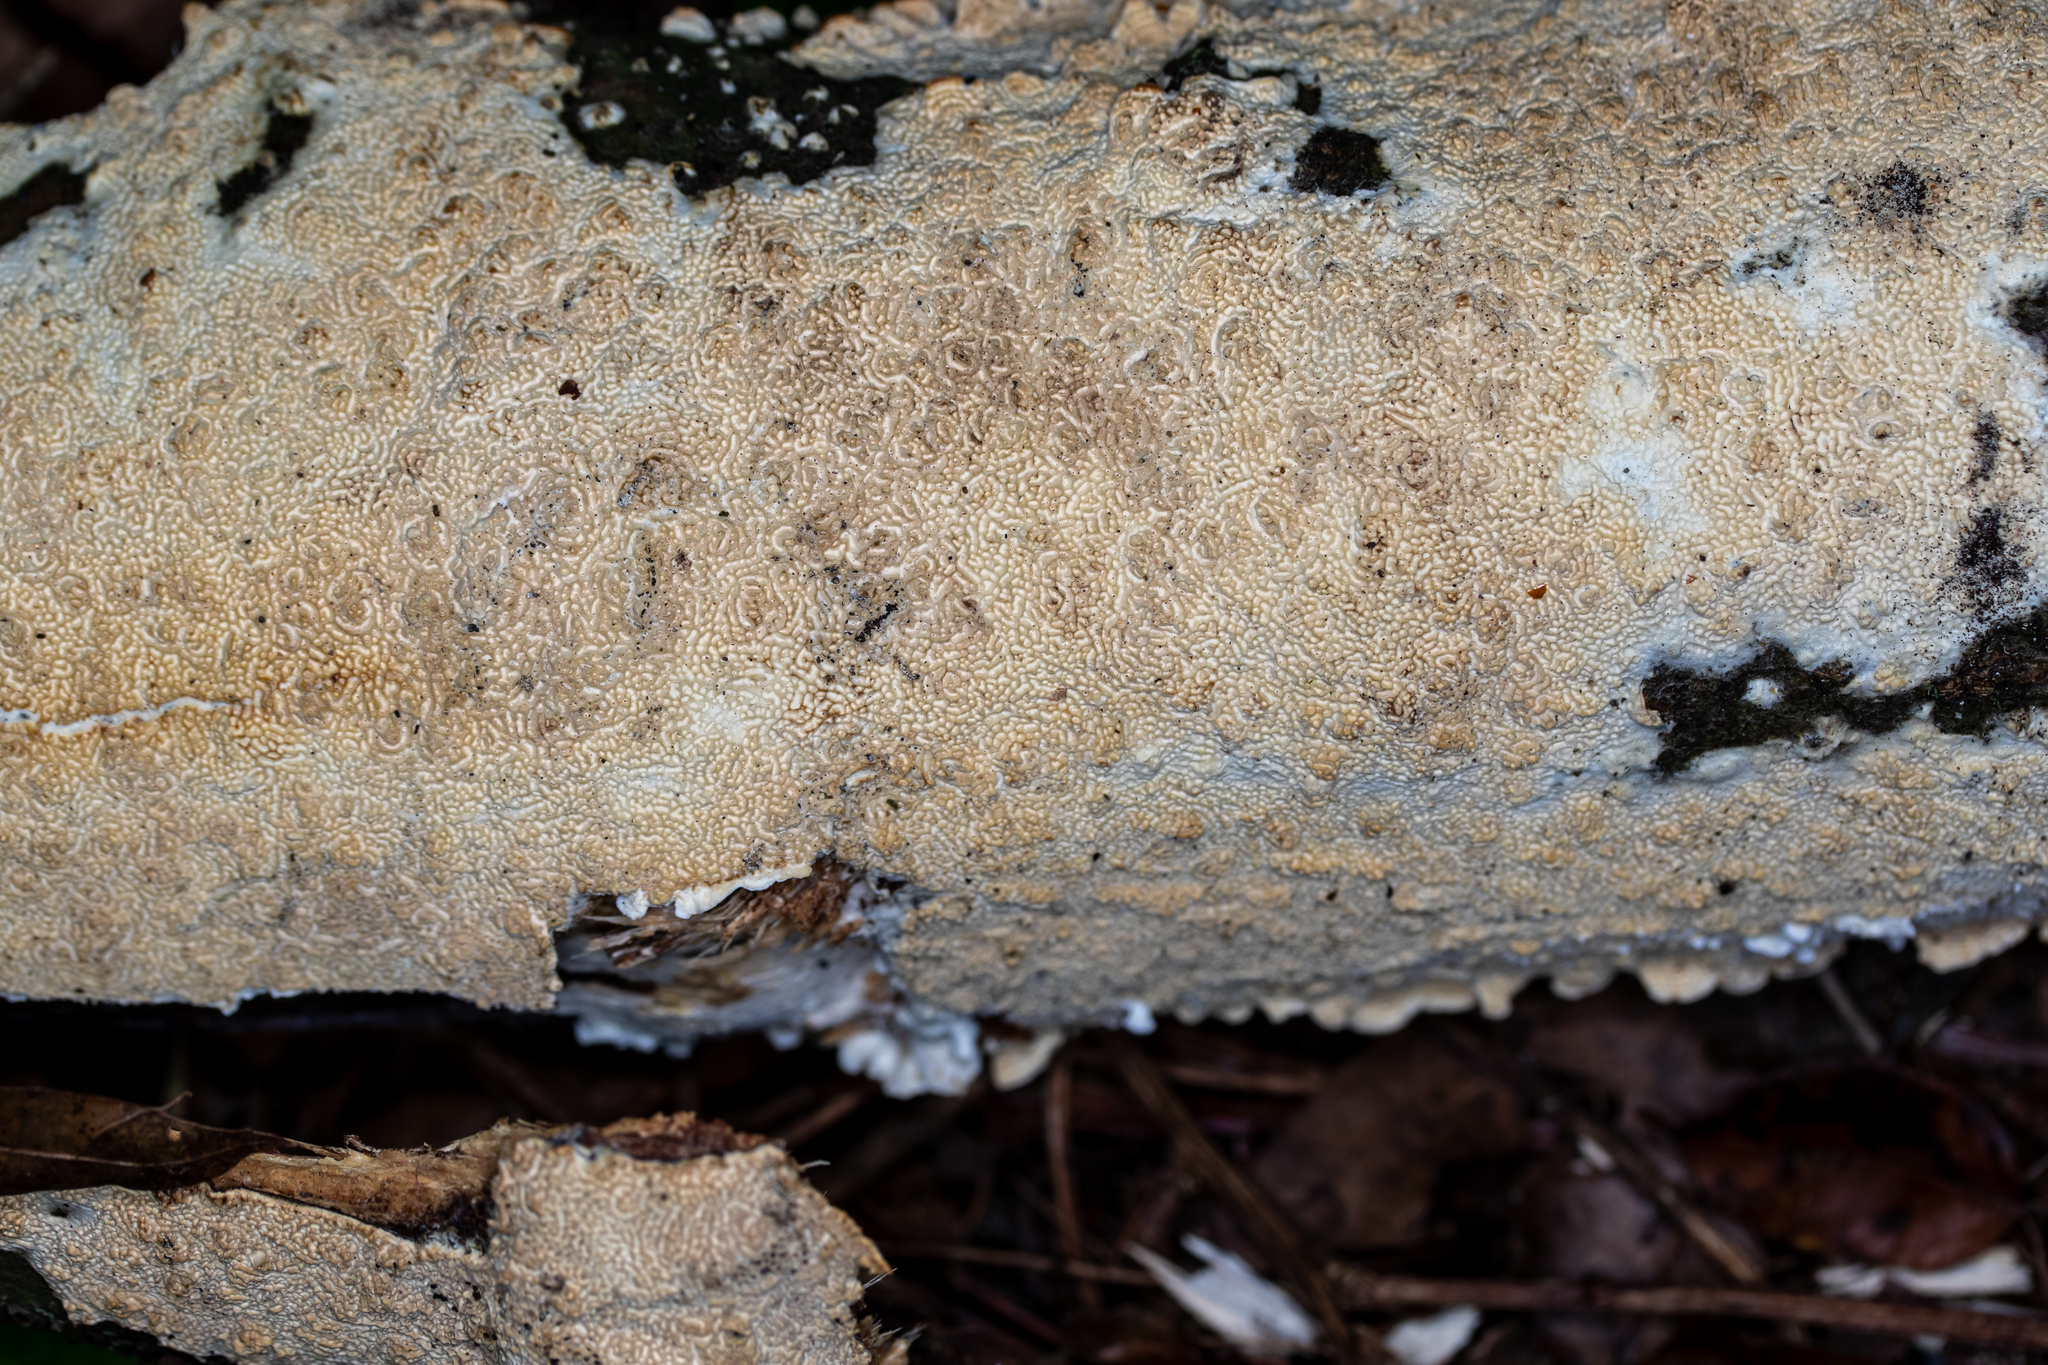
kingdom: Fungi
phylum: Basidiomycota
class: Agaricomycetes
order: Hymenochaetales
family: Schizoporaceae
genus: Schizopora
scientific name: Schizopora paradoxa
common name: Split porecrust
